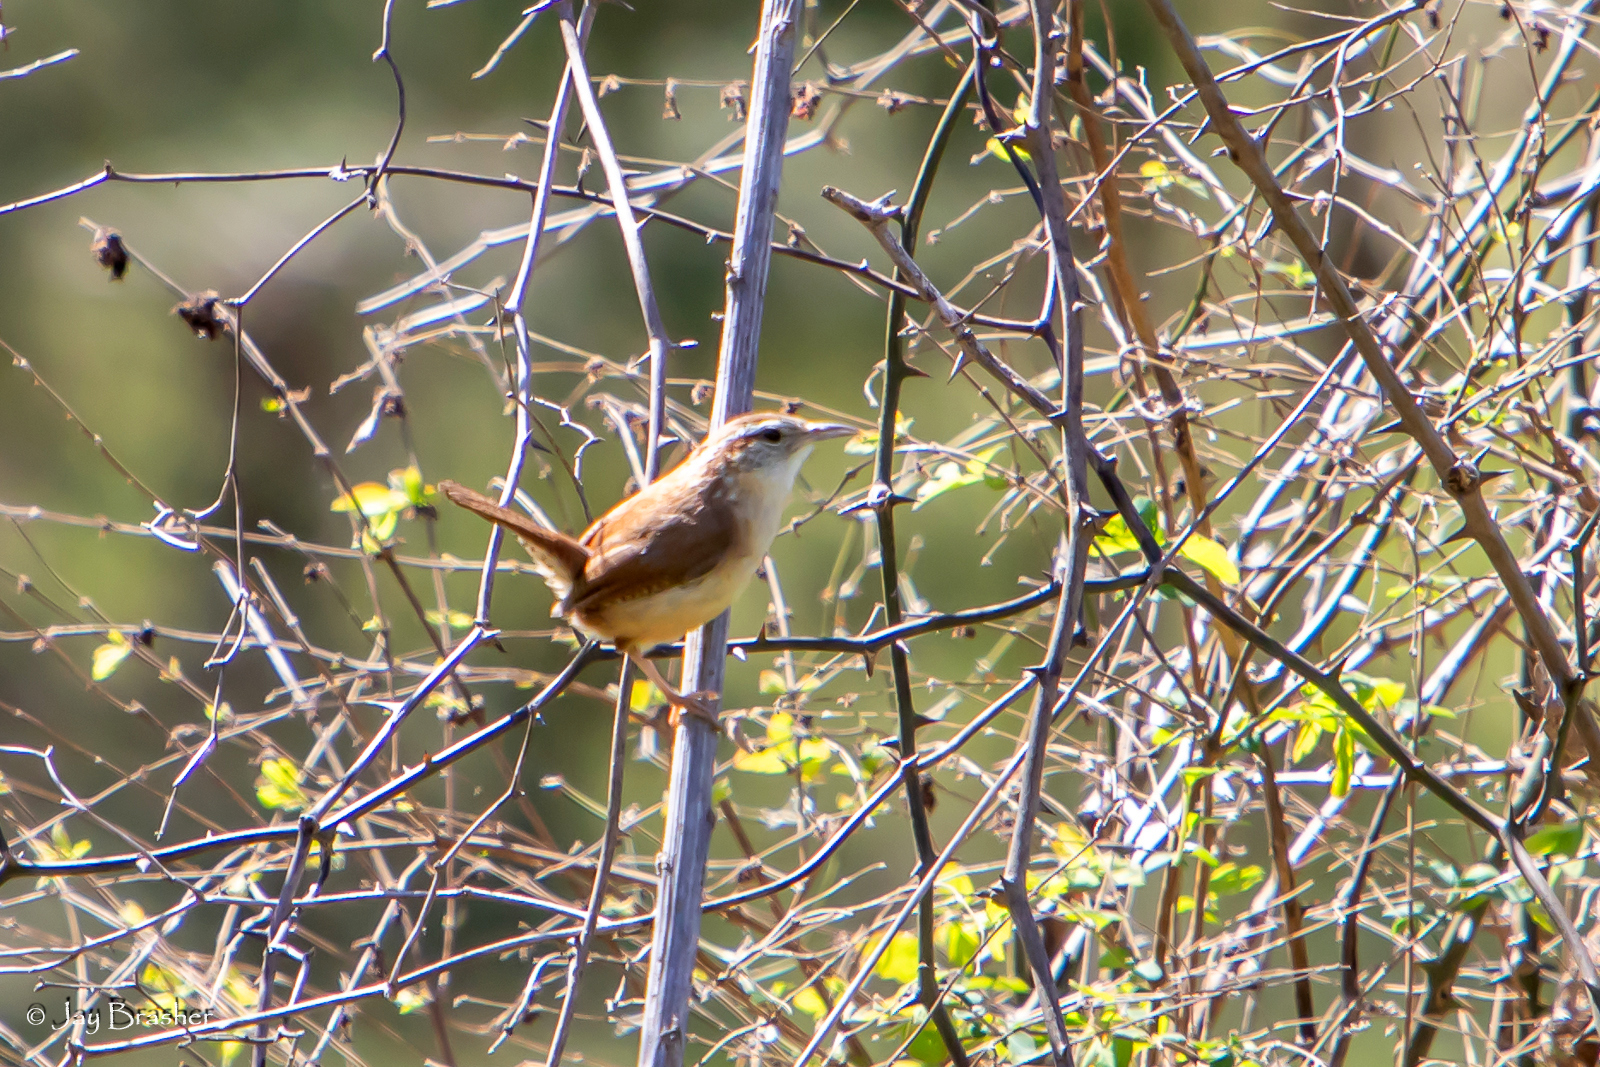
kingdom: Animalia
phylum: Chordata
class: Aves
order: Passeriformes
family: Troglodytidae
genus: Thryothorus
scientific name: Thryothorus ludovicianus
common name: Carolina wren
